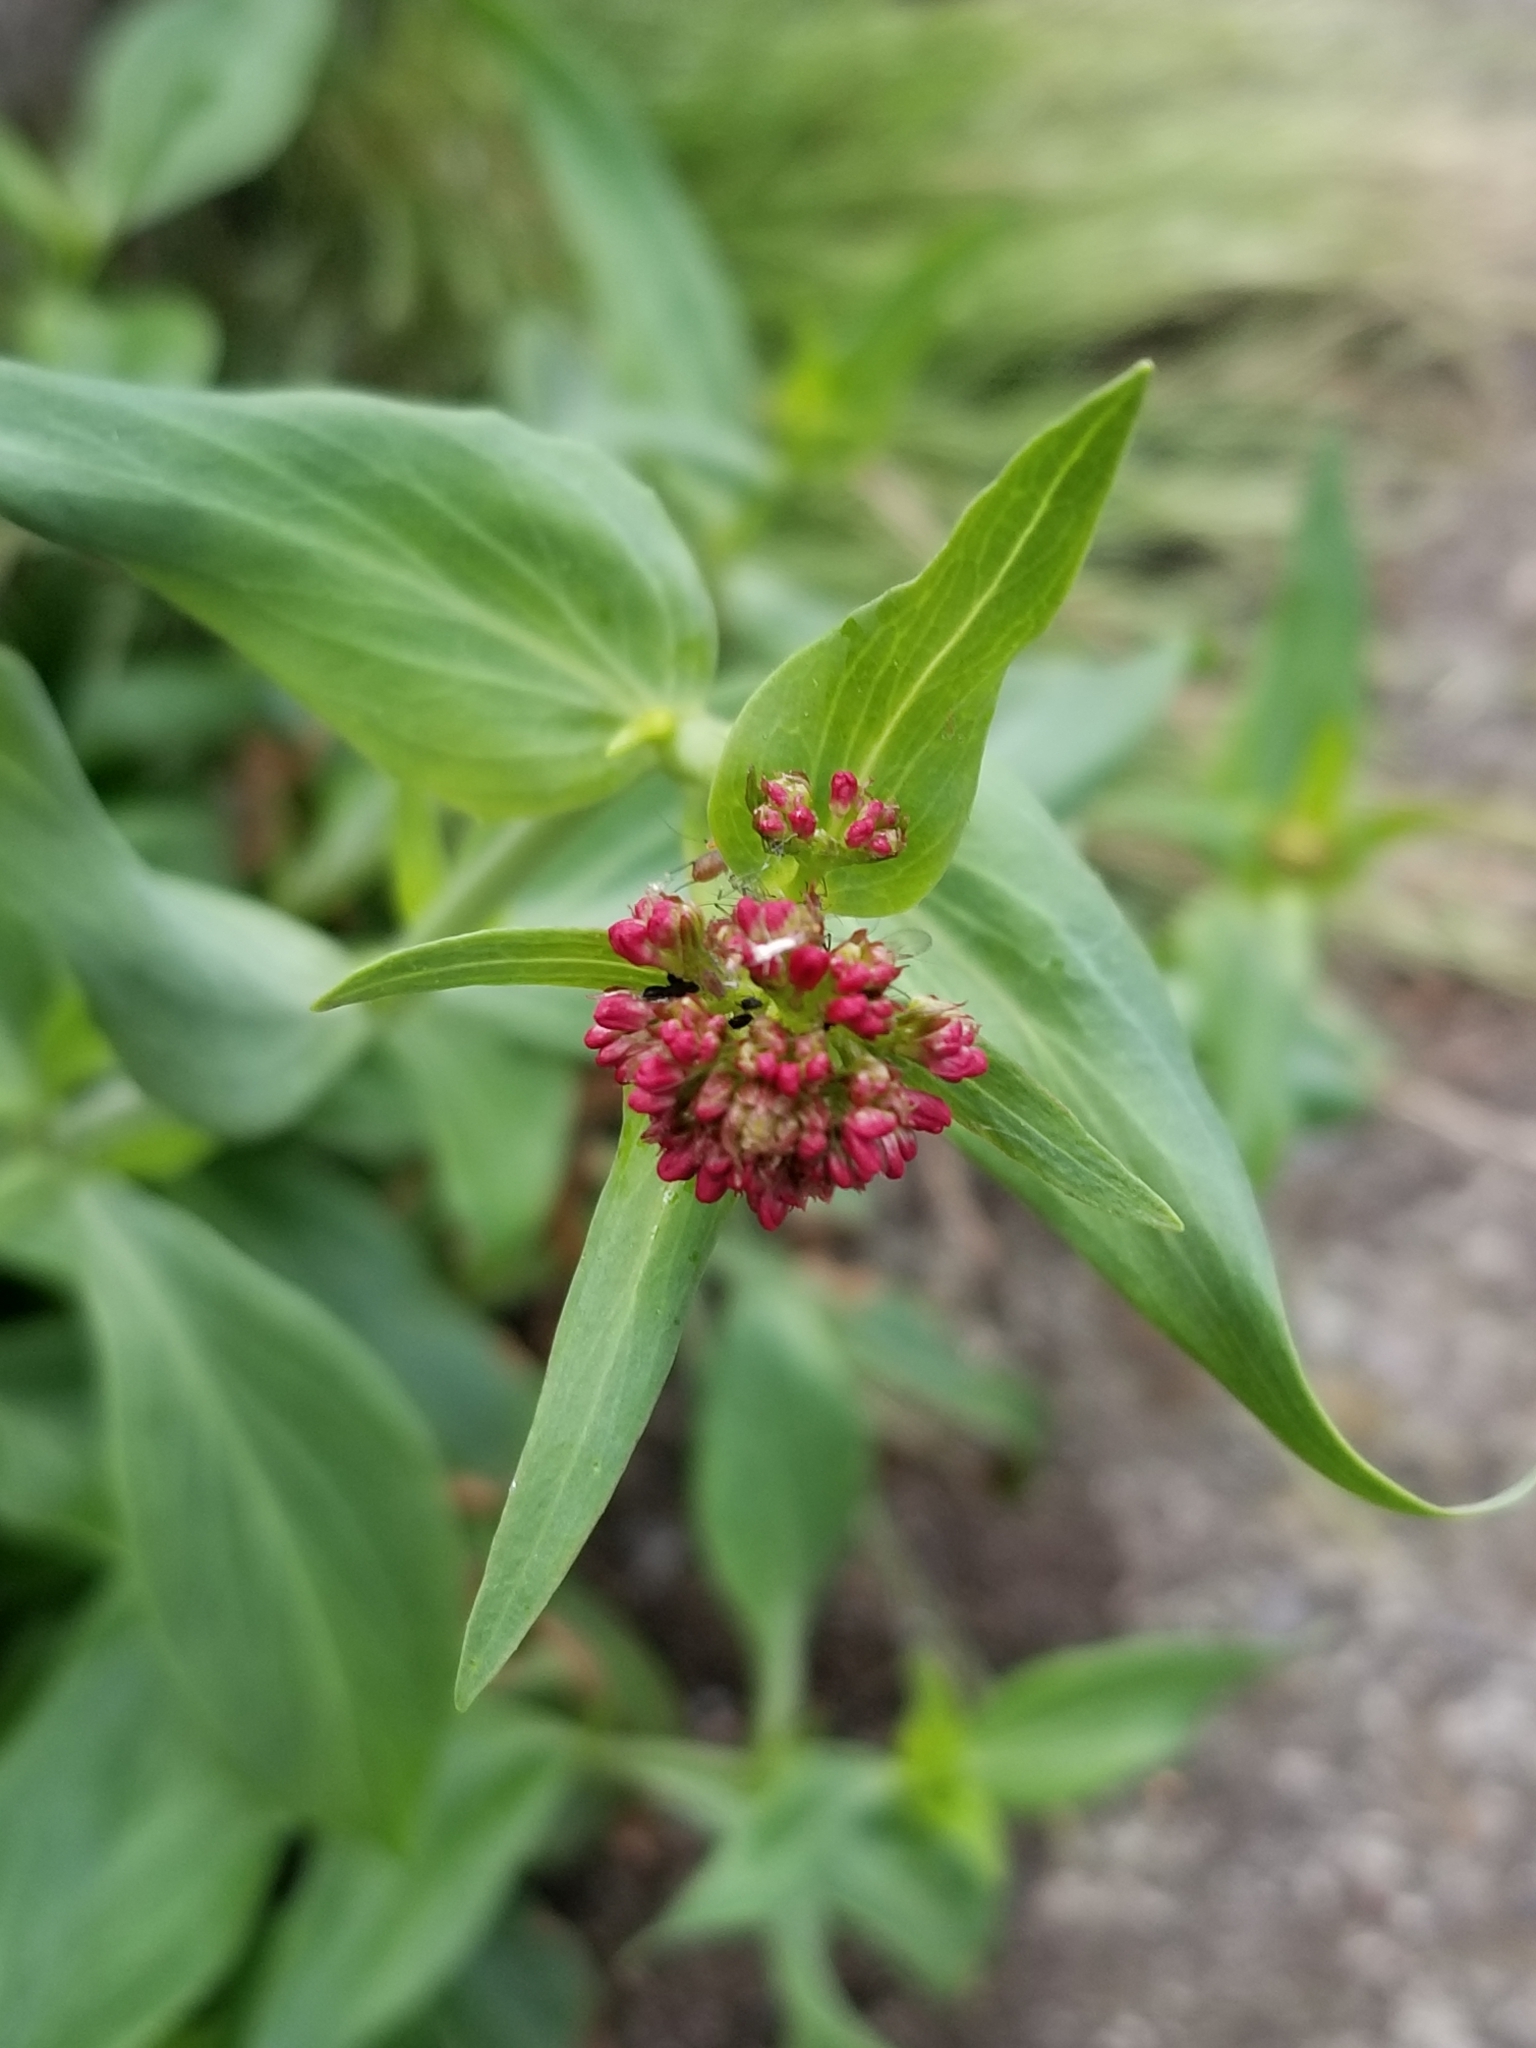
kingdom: Plantae
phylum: Tracheophyta
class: Magnoliopsida
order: Dipsacales
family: Caprifoliaceae
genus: Centranthus
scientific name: Centranthus ruber
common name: Red valerian
